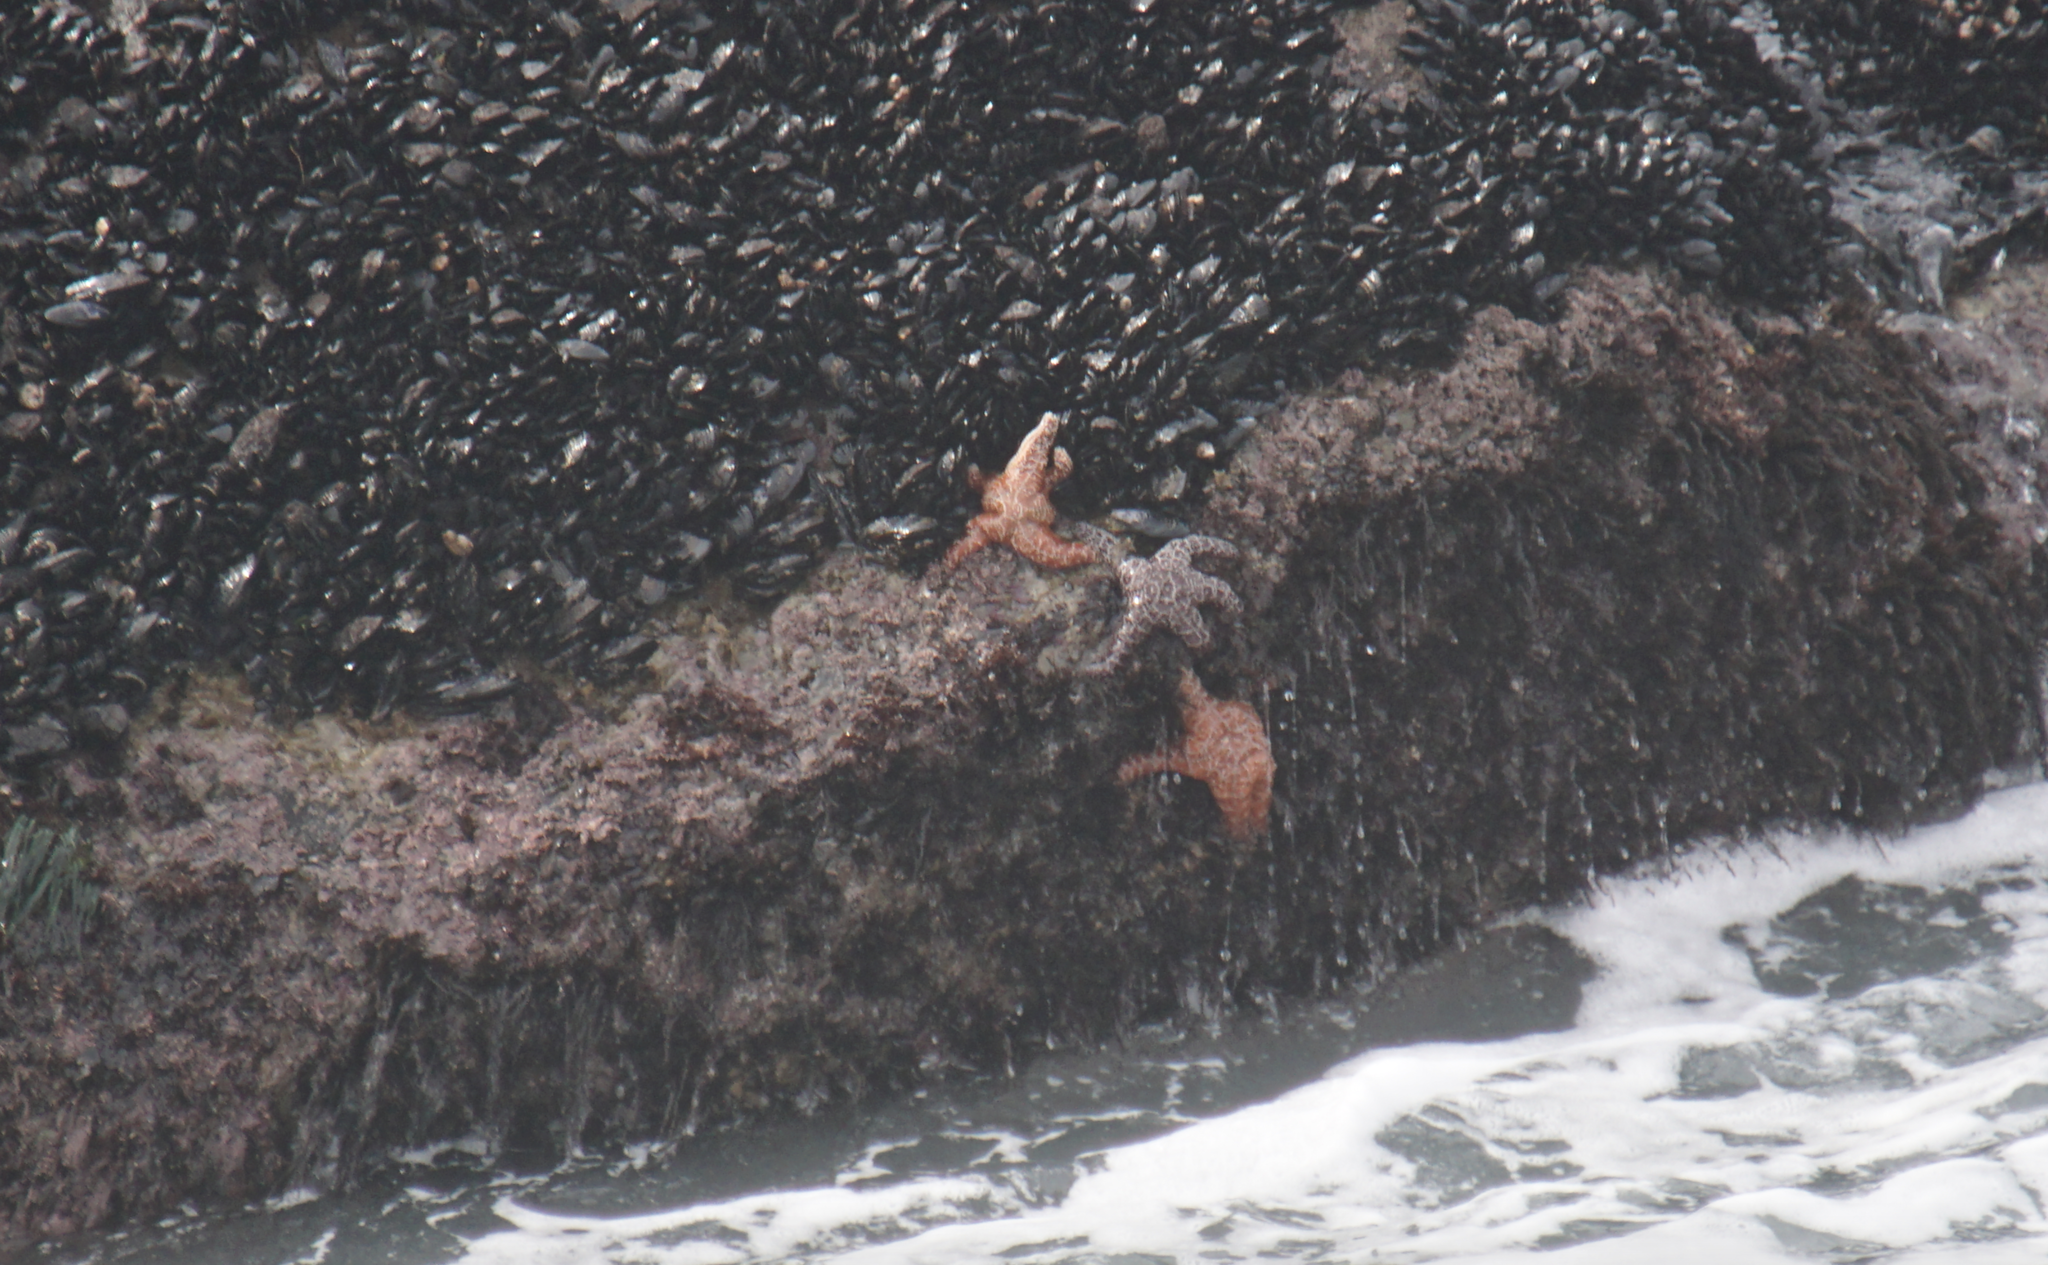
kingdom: Animalia
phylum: Echinodermata
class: Asteroidea
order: Forcipulatida
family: Asteriidae
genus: Pisaster
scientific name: Pisaster ochraceus
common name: Ochre stars
